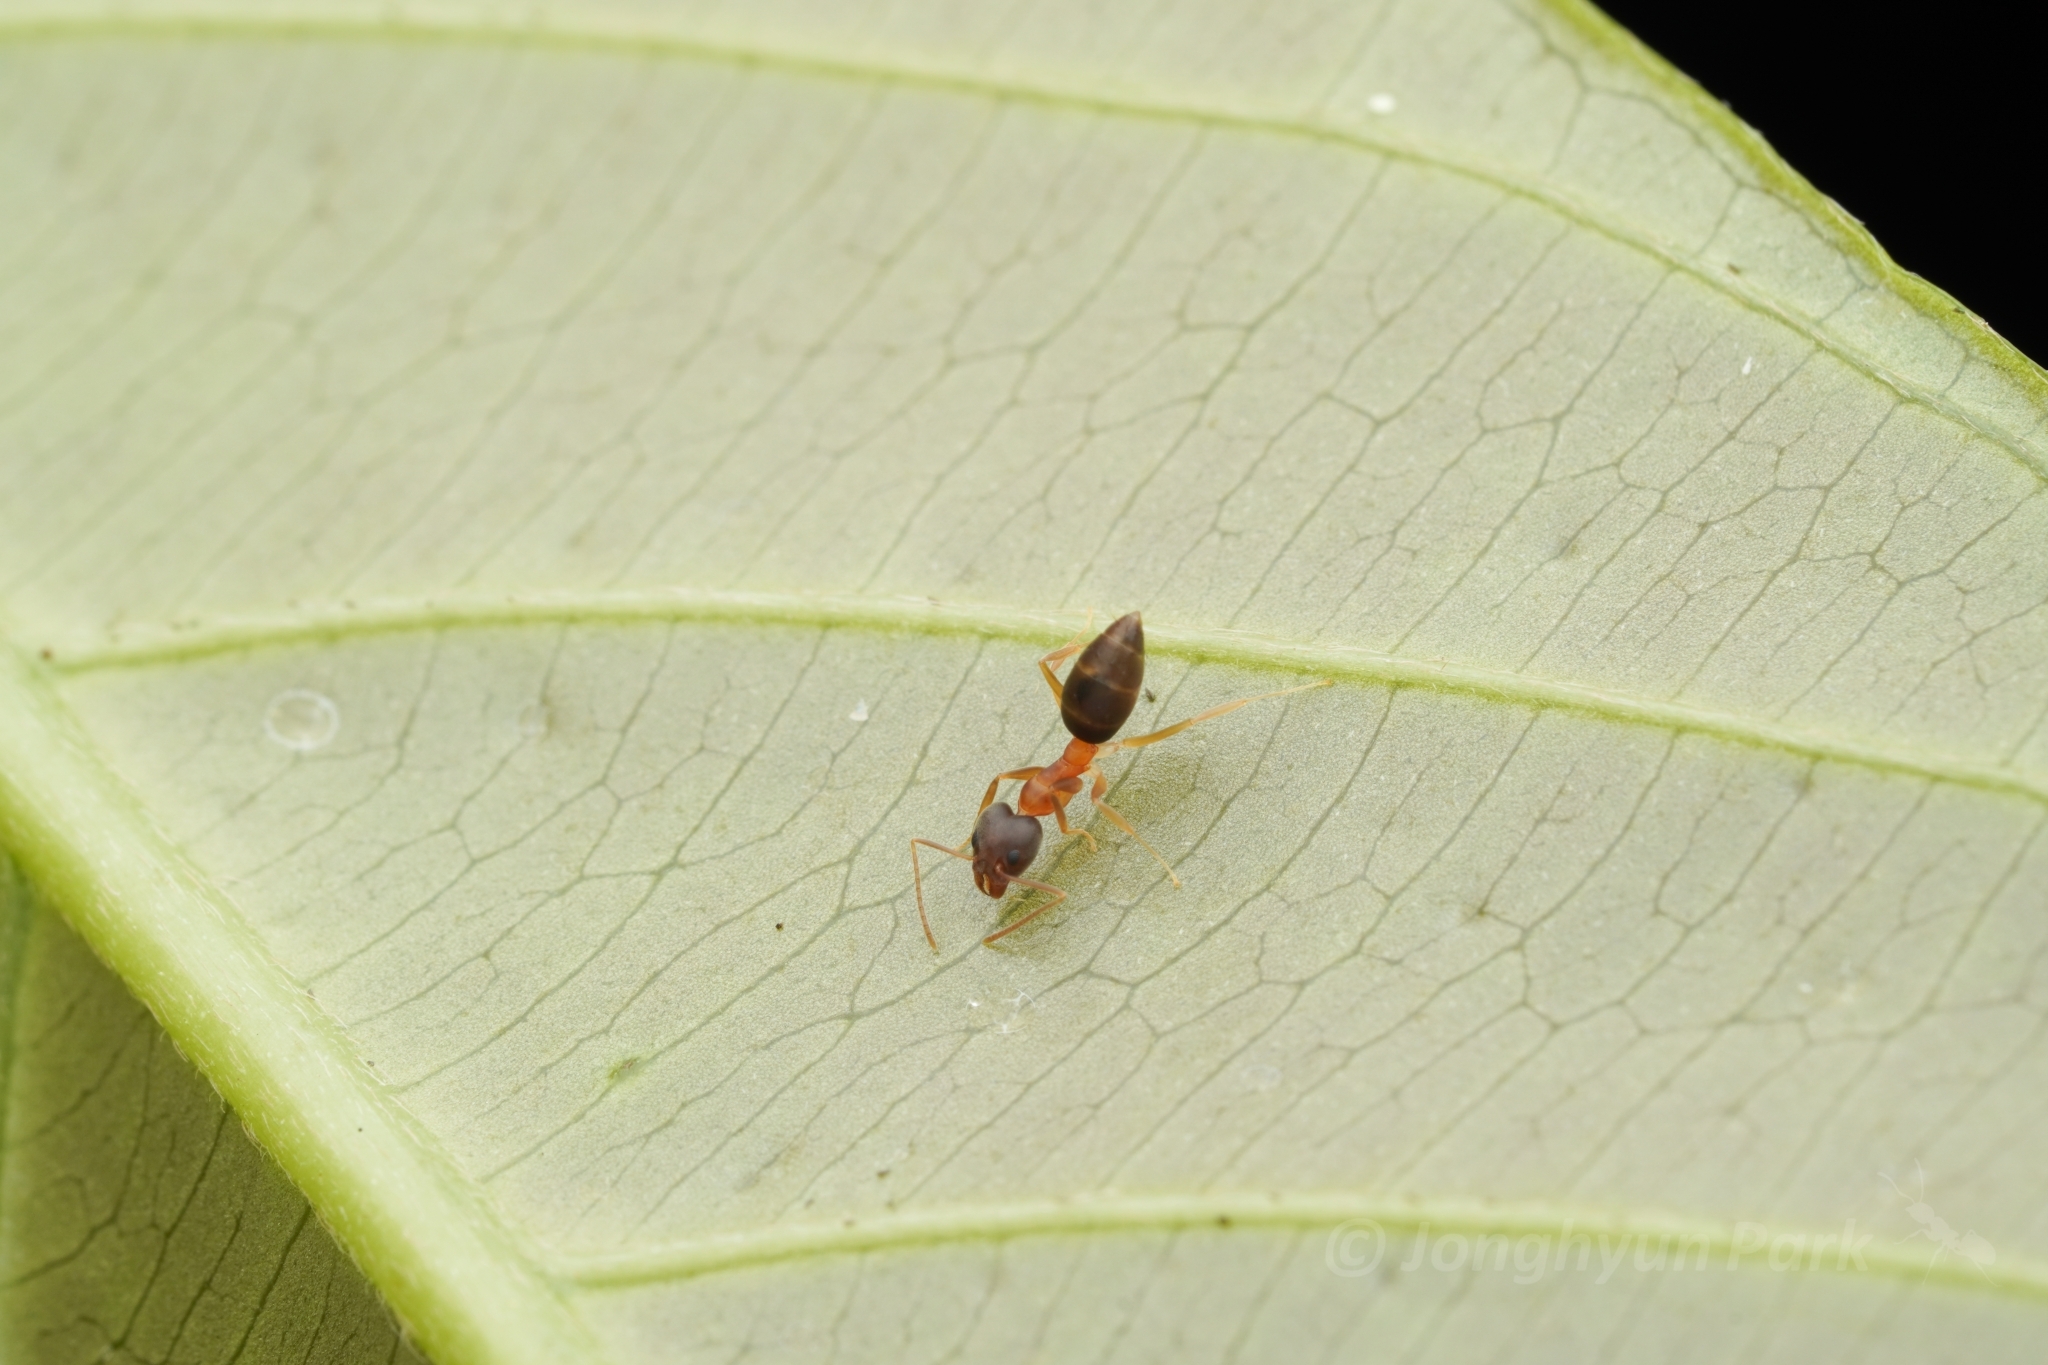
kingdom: Animalia
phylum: Arthropoda
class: Insecta
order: Hymenoptera
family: Formicidae
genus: Technomyrmex
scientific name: Technomyrmex horni
